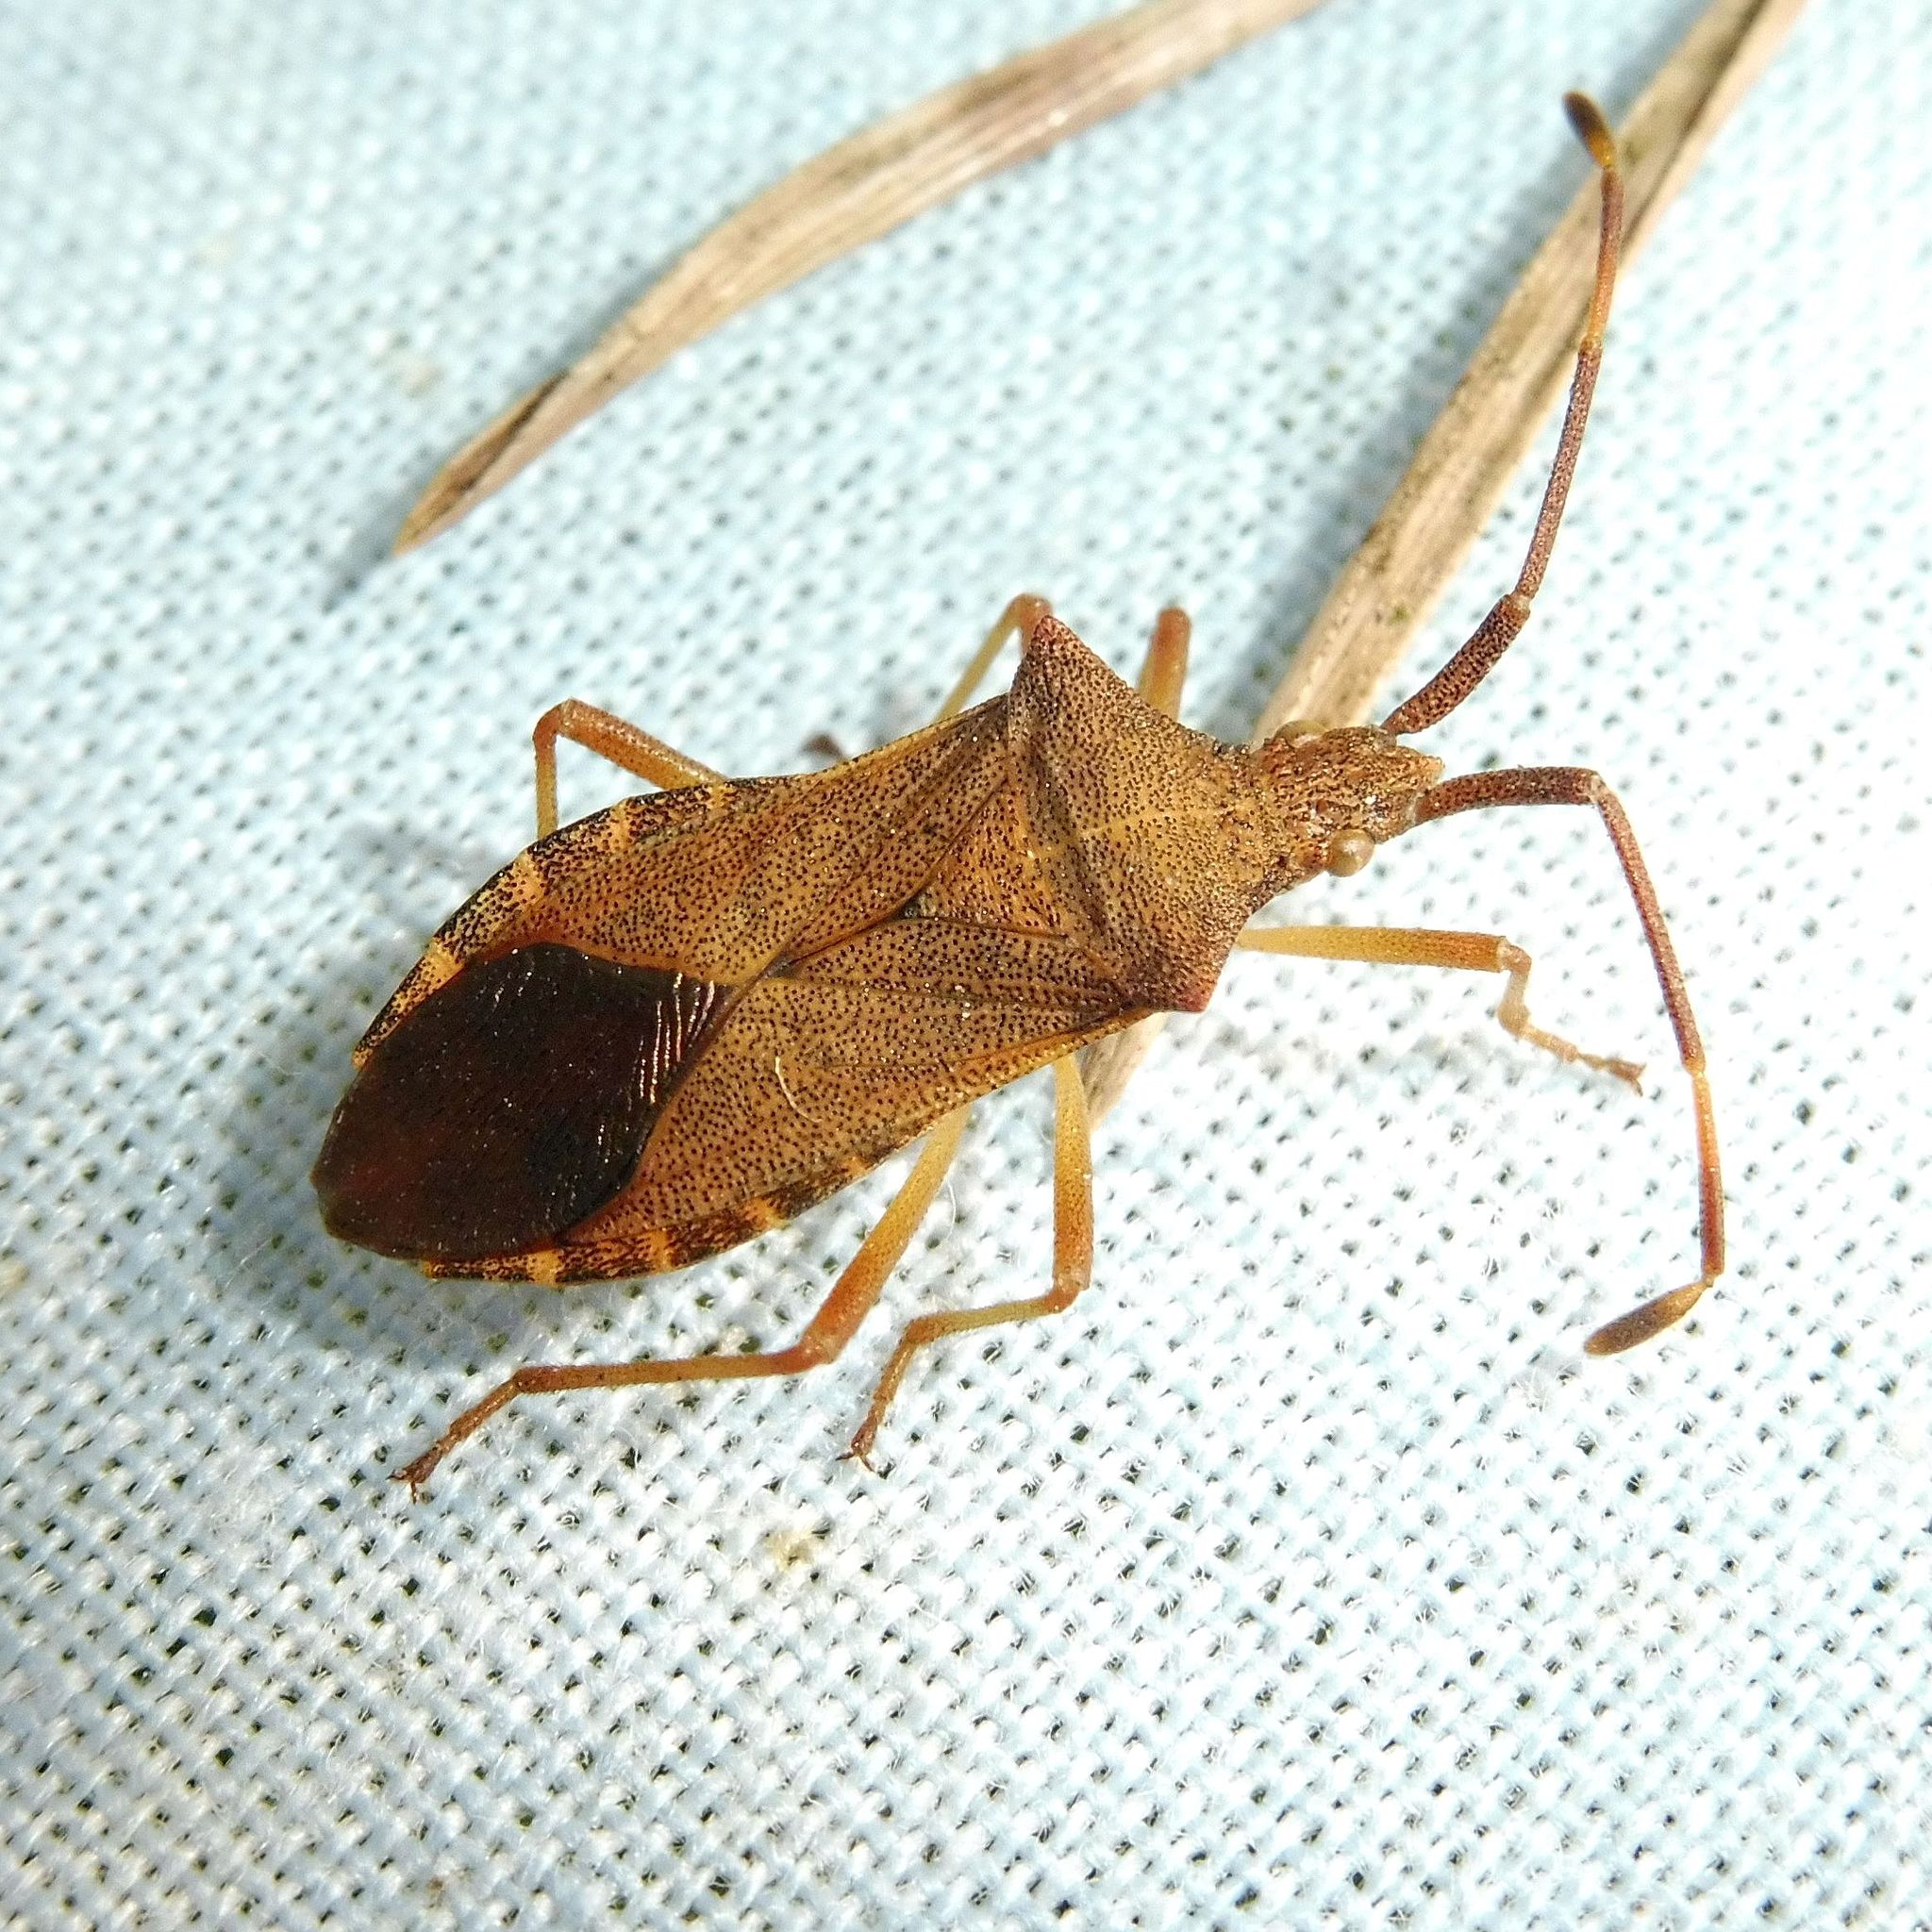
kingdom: Animalia
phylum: Arthropoda
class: Insecta
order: Hemiptera
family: Coreidae
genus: Gonocerus
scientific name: Gonocerus acuteangulatus
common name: Box bug
